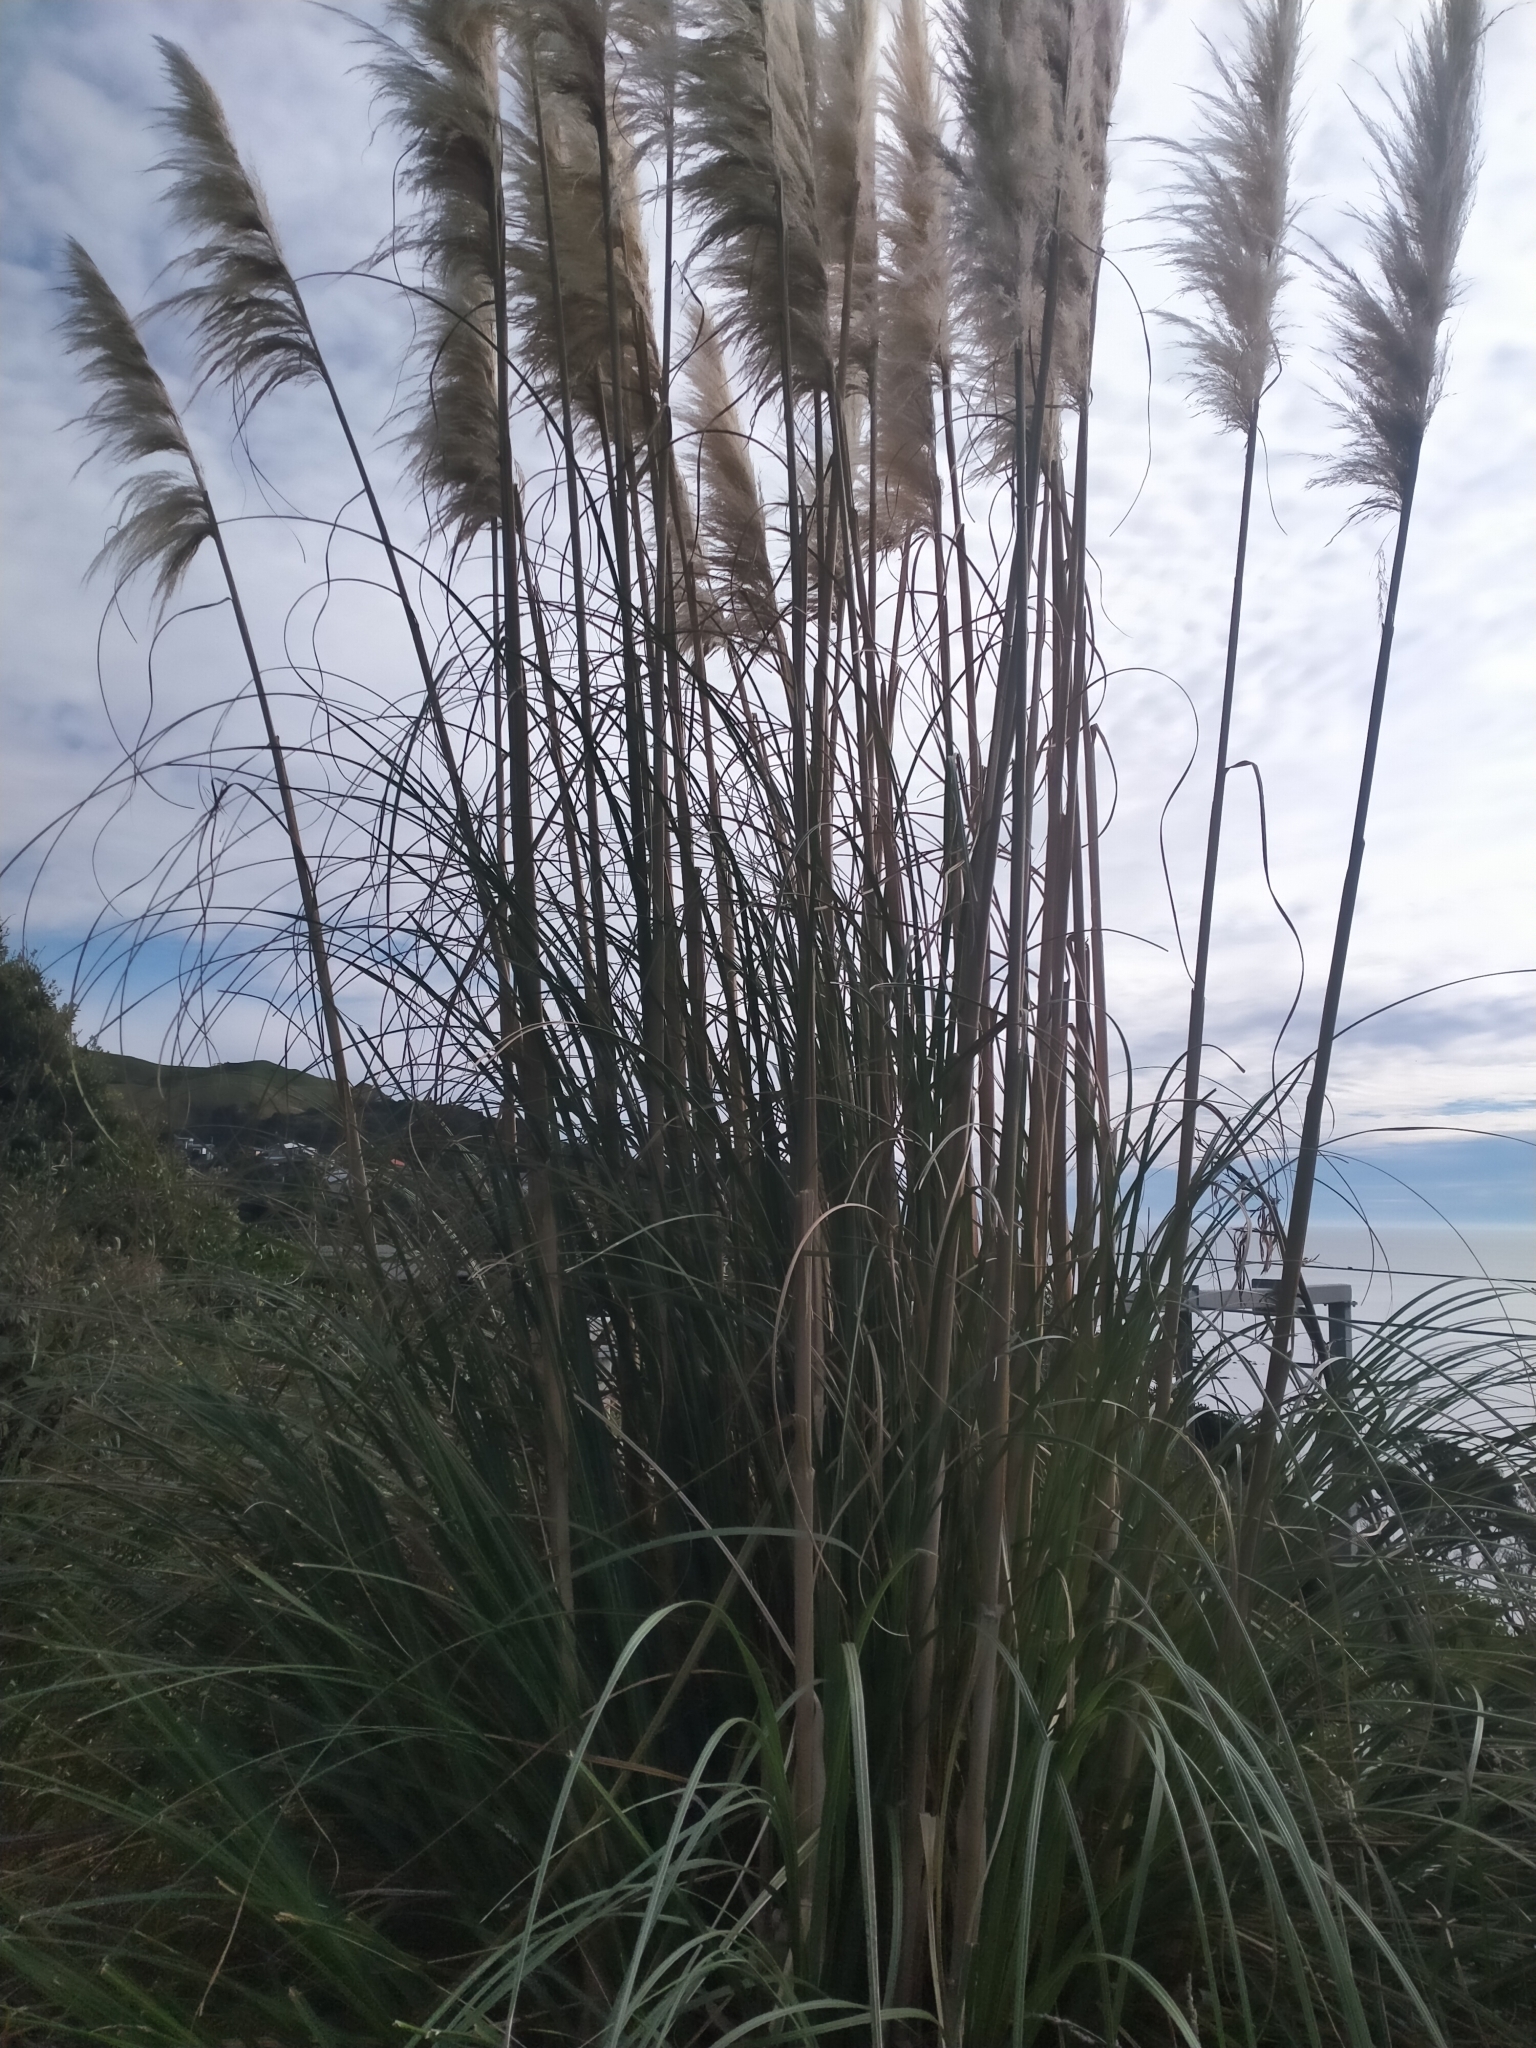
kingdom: Plantae
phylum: Tracheophyta
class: Liliopsida
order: Poales
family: Poaceae
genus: Cortaderia
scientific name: Cortaderia selloana
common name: Uruguayan pampas grass
